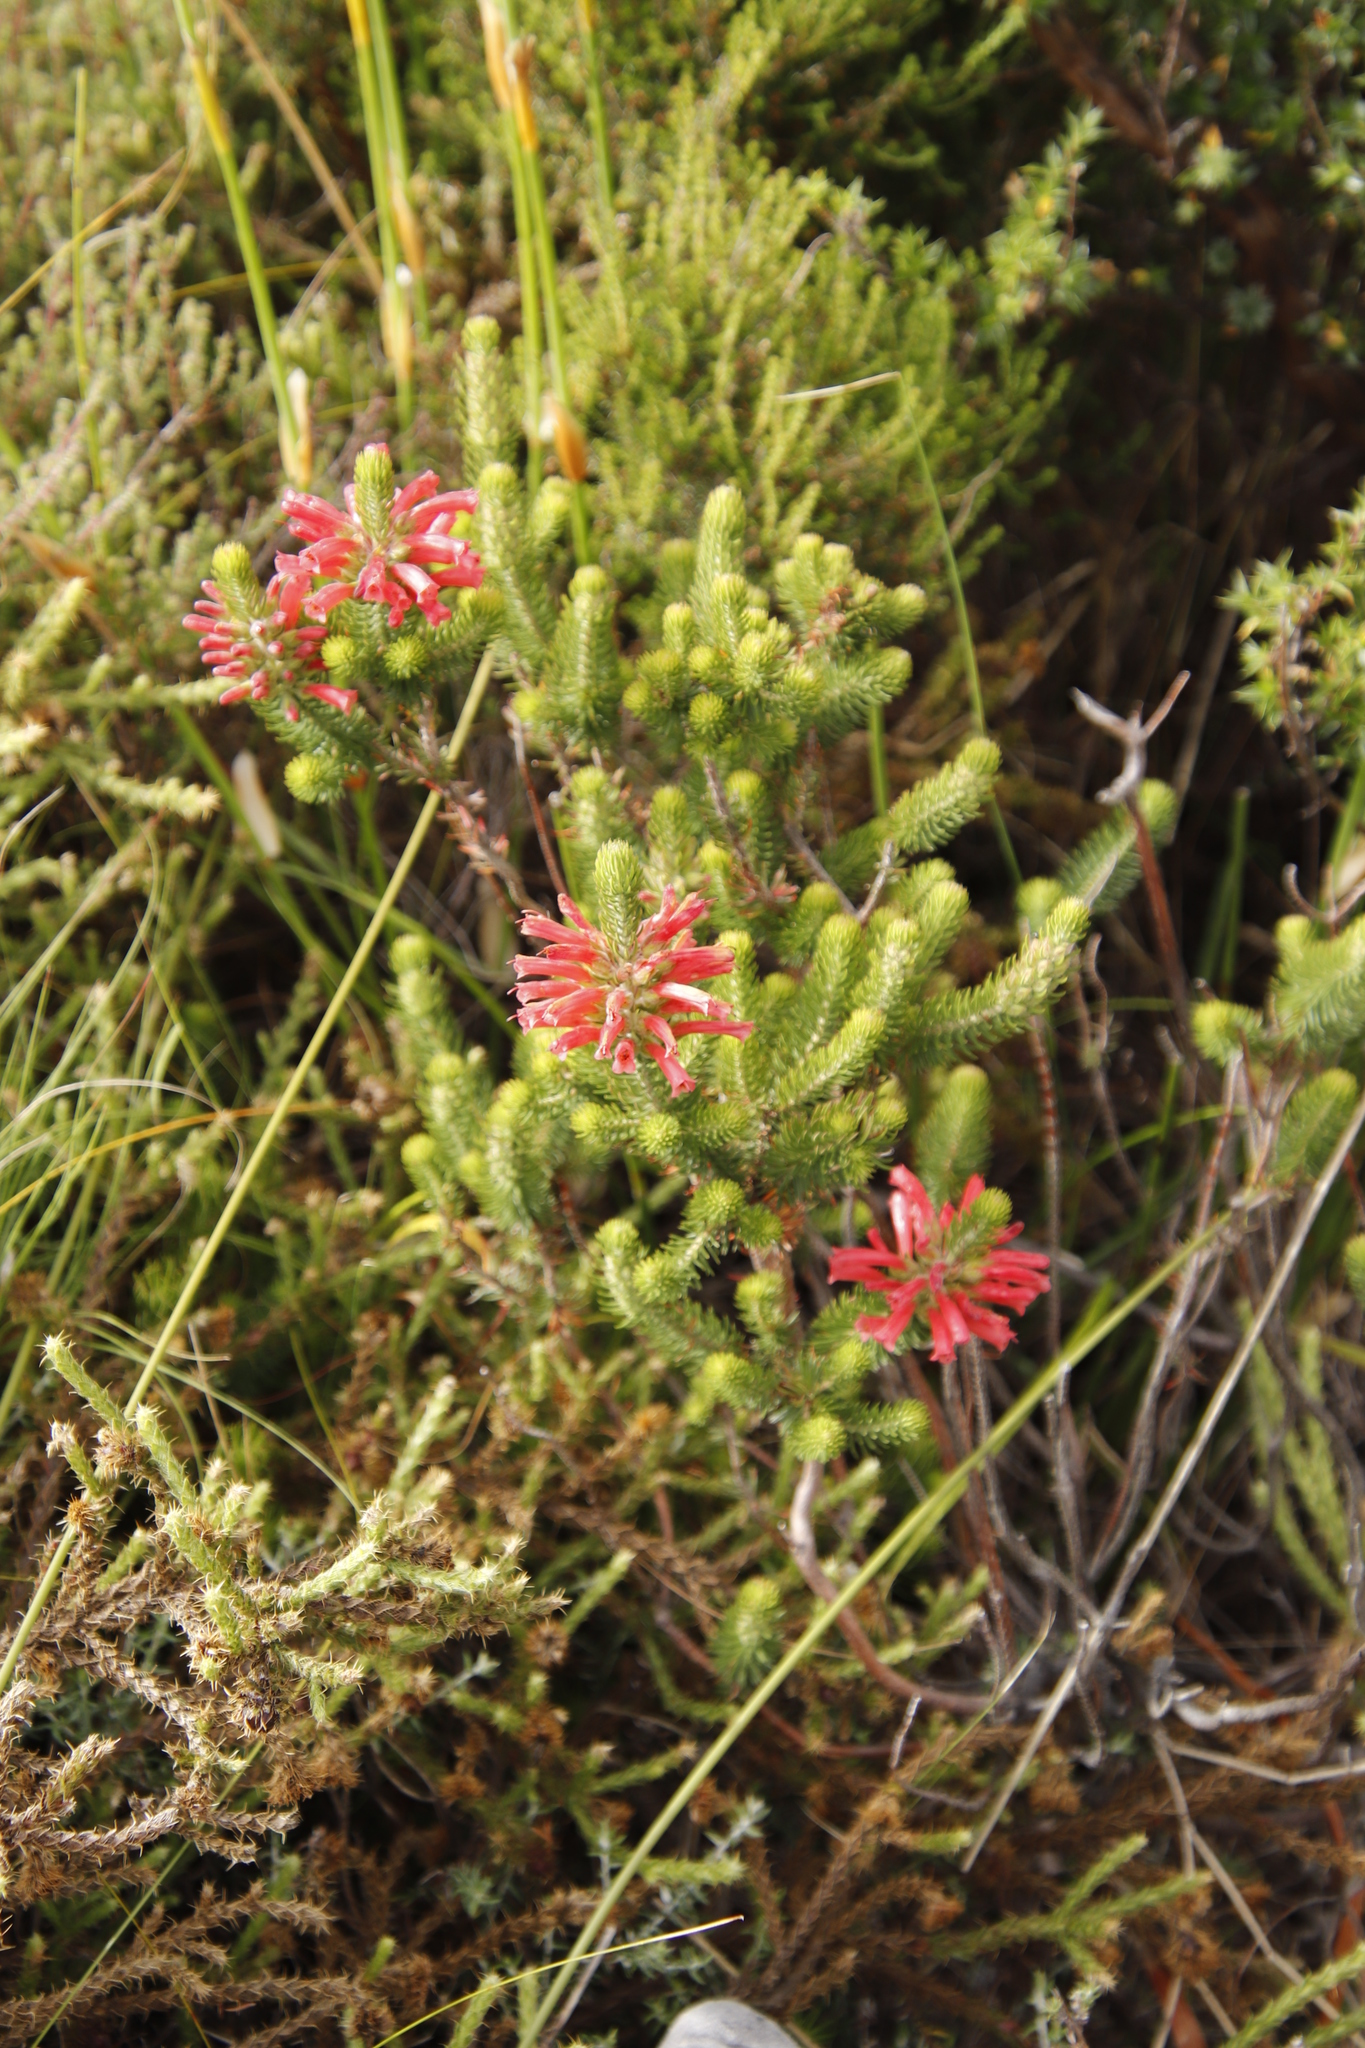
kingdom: Plantae
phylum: Tracheophyta
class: Magnoliopsida
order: Ericales
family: Ericaceae
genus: Erica
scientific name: Erica abietina
